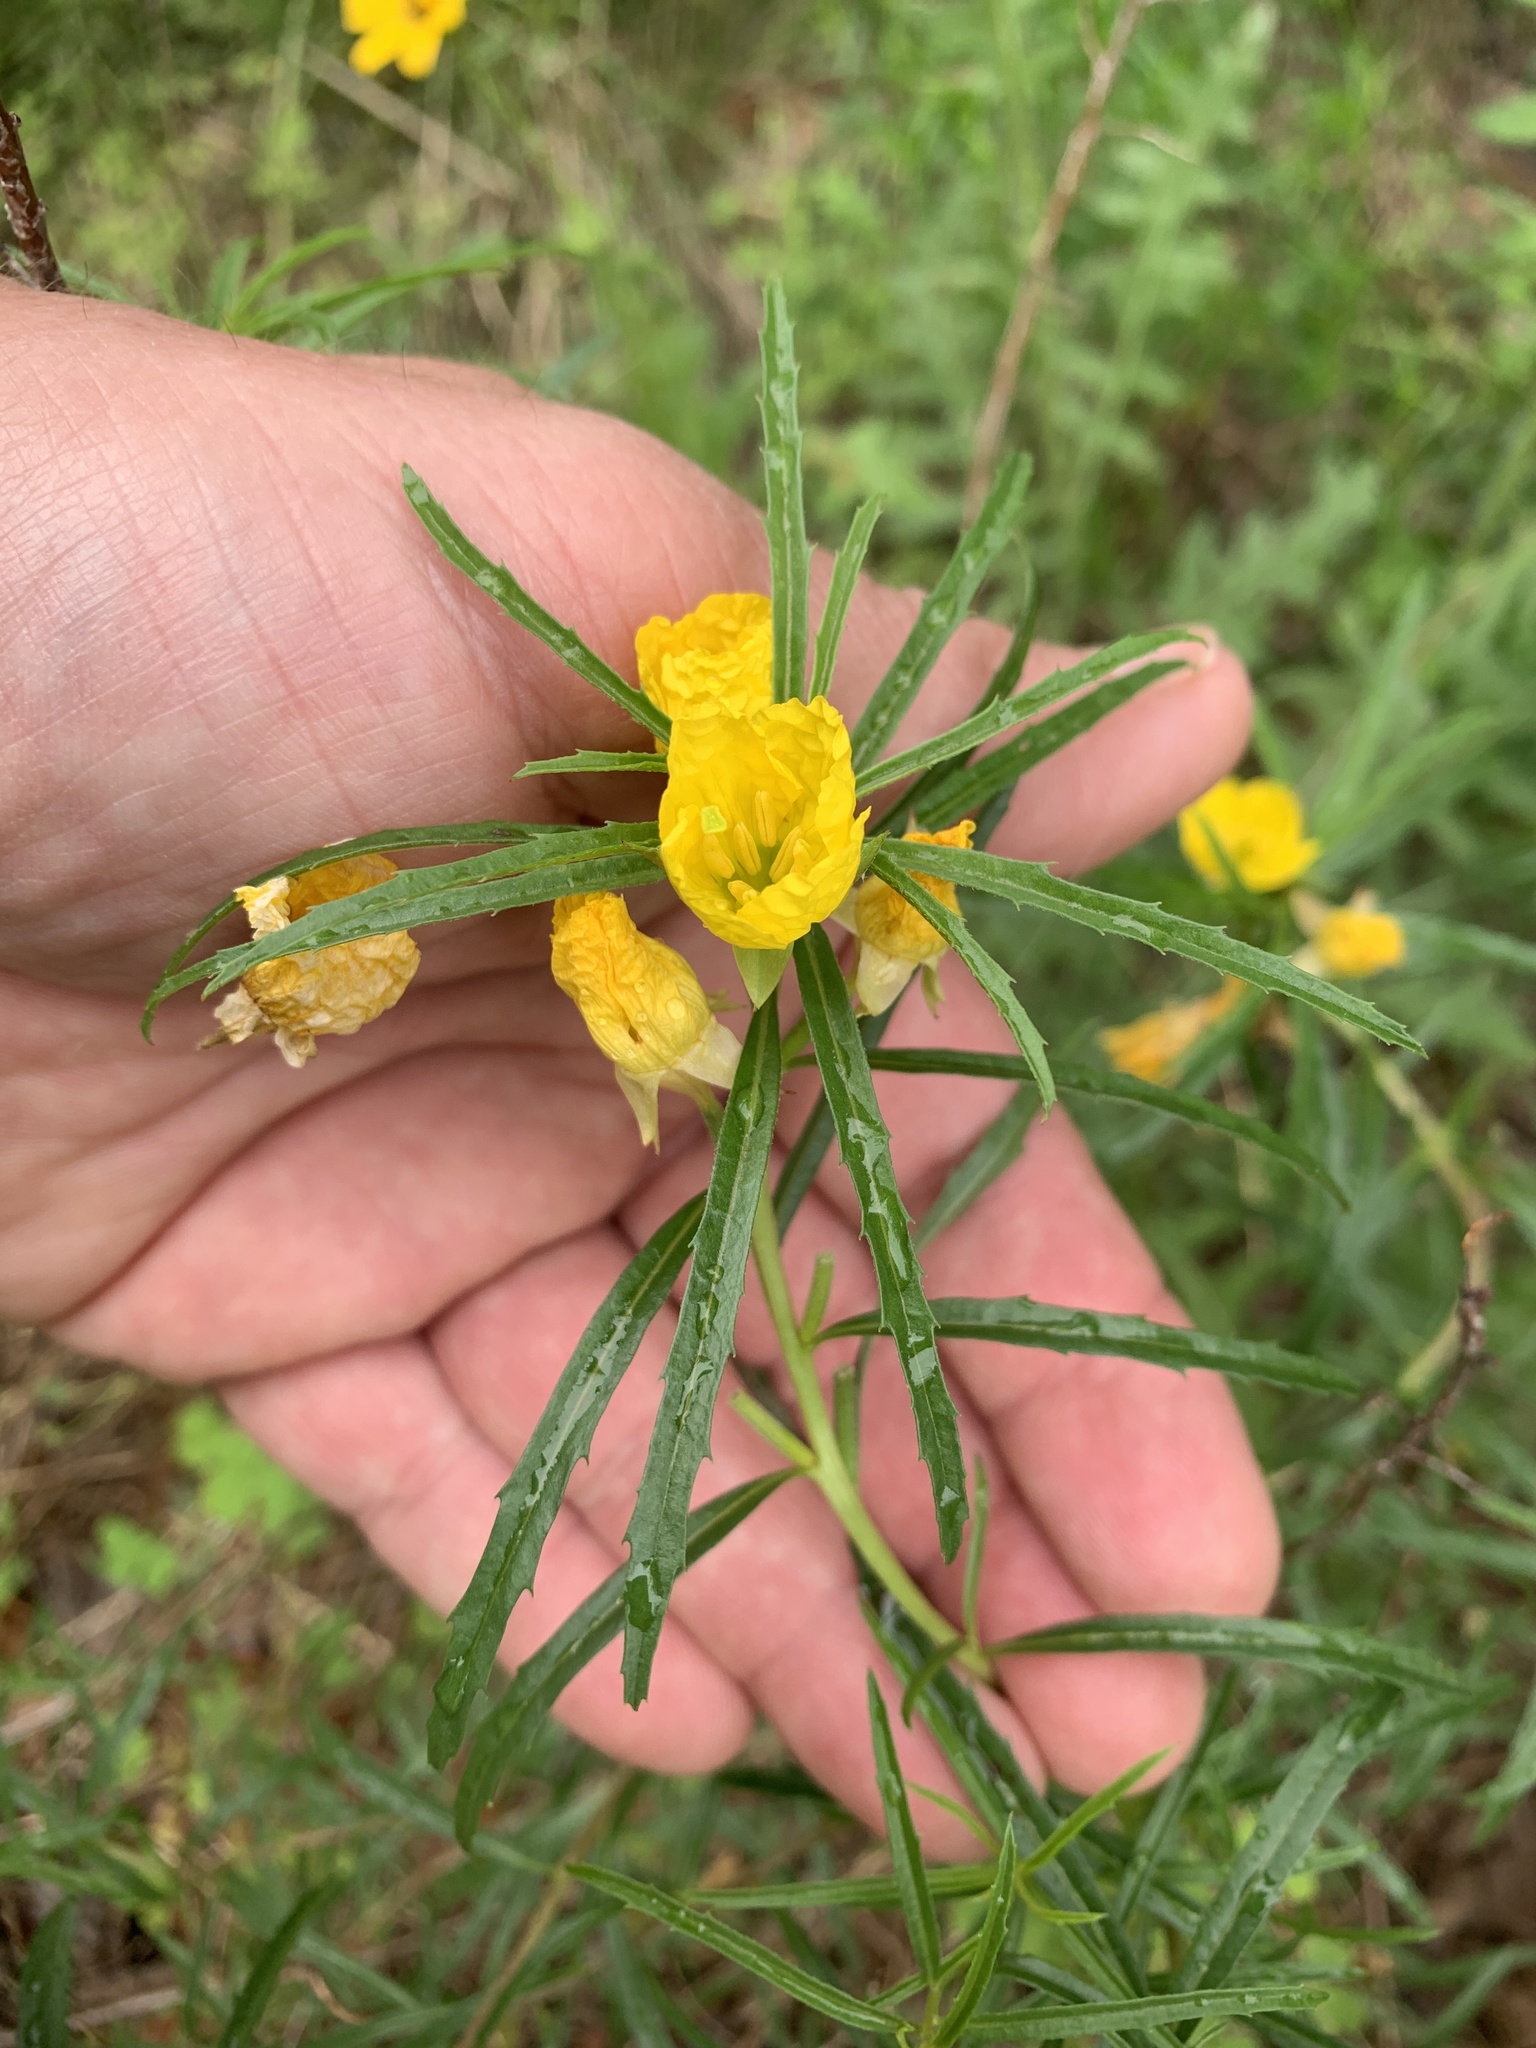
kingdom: Plantae
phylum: Tracheophyta
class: Magnoliopsida
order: Myrtales
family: Onagraceae
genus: Oenothera
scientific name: Oenothera
